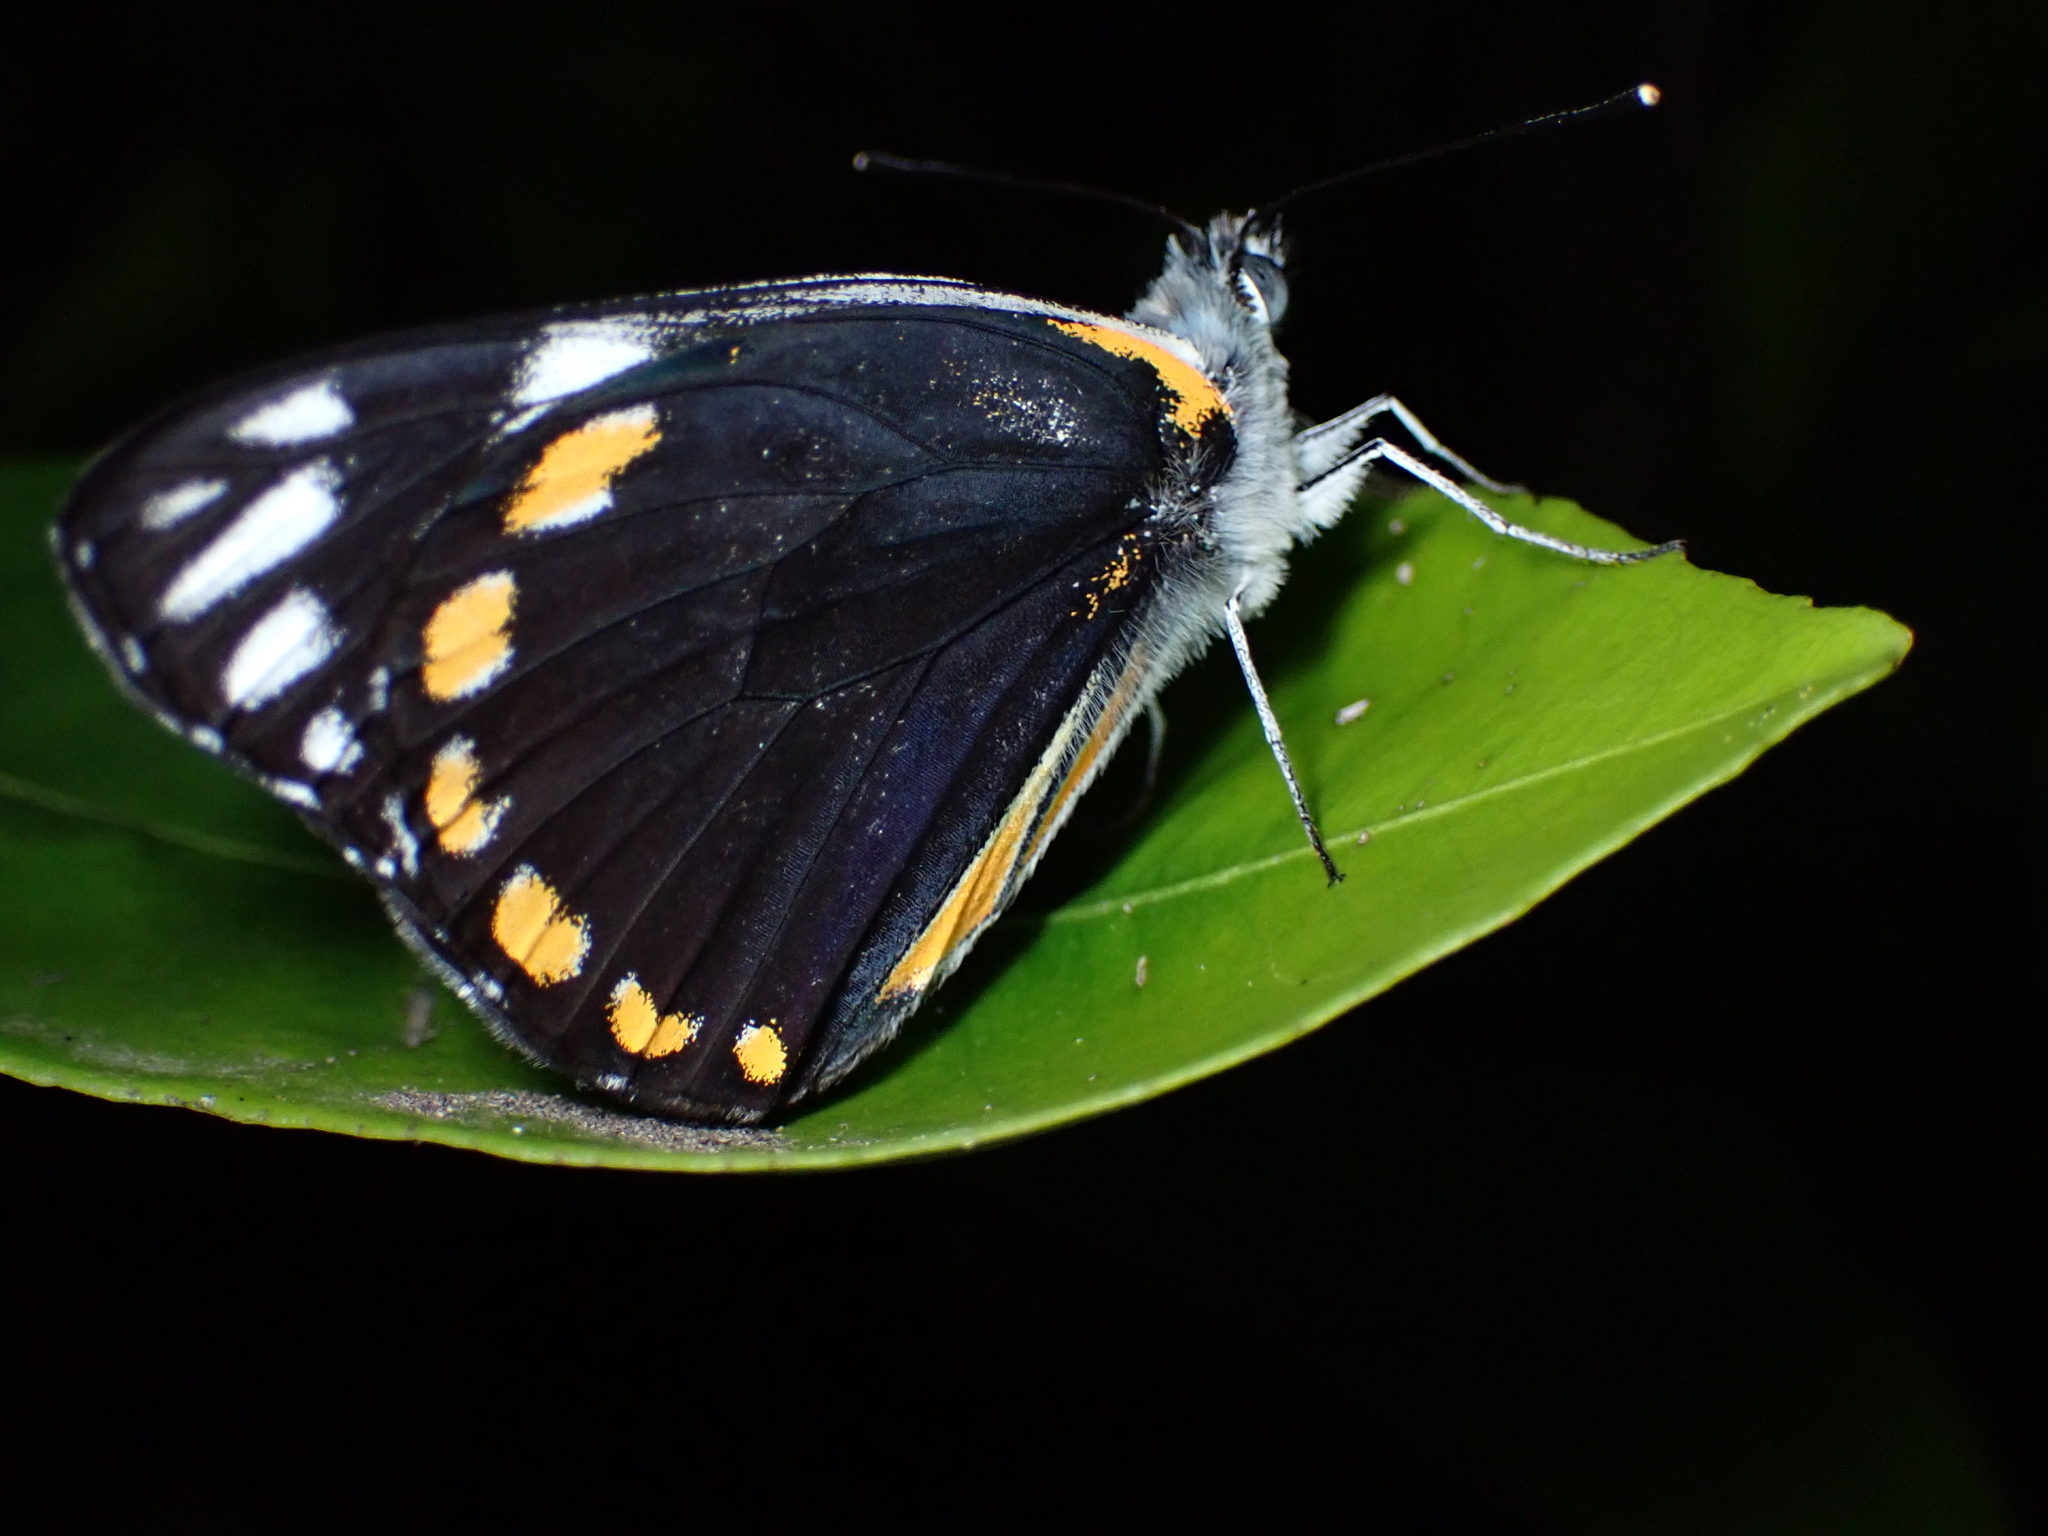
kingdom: Animalia
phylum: Arthropoda
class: Insecta
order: Lepidoptera
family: Pieridae
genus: Belenois
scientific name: Belenois java
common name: Caper white
